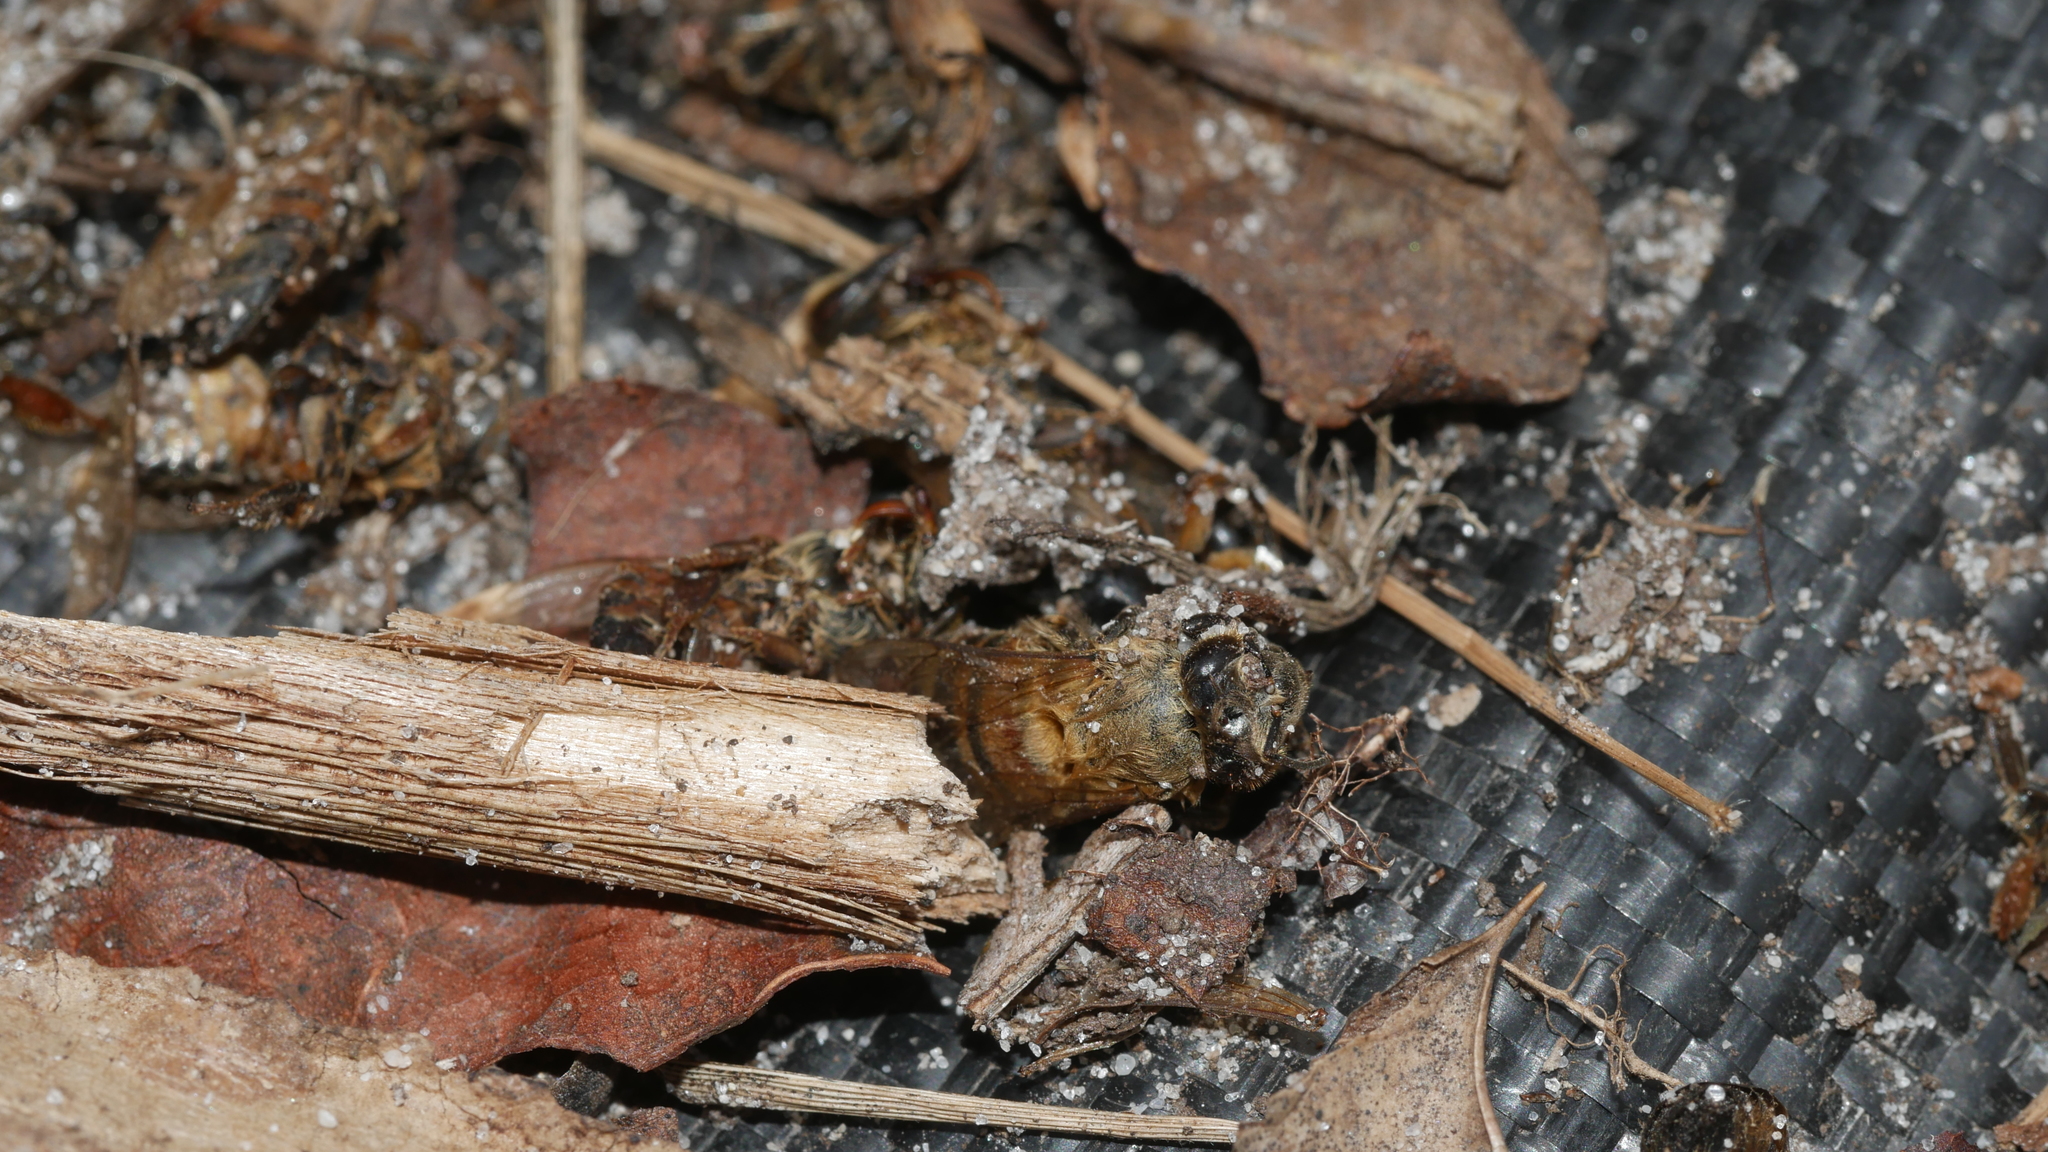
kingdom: Animalia
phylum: Arthropoda
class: Insecta
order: Hymenoptera
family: Apidae
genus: Apis
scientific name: Apis mellifera
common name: Honey bee
